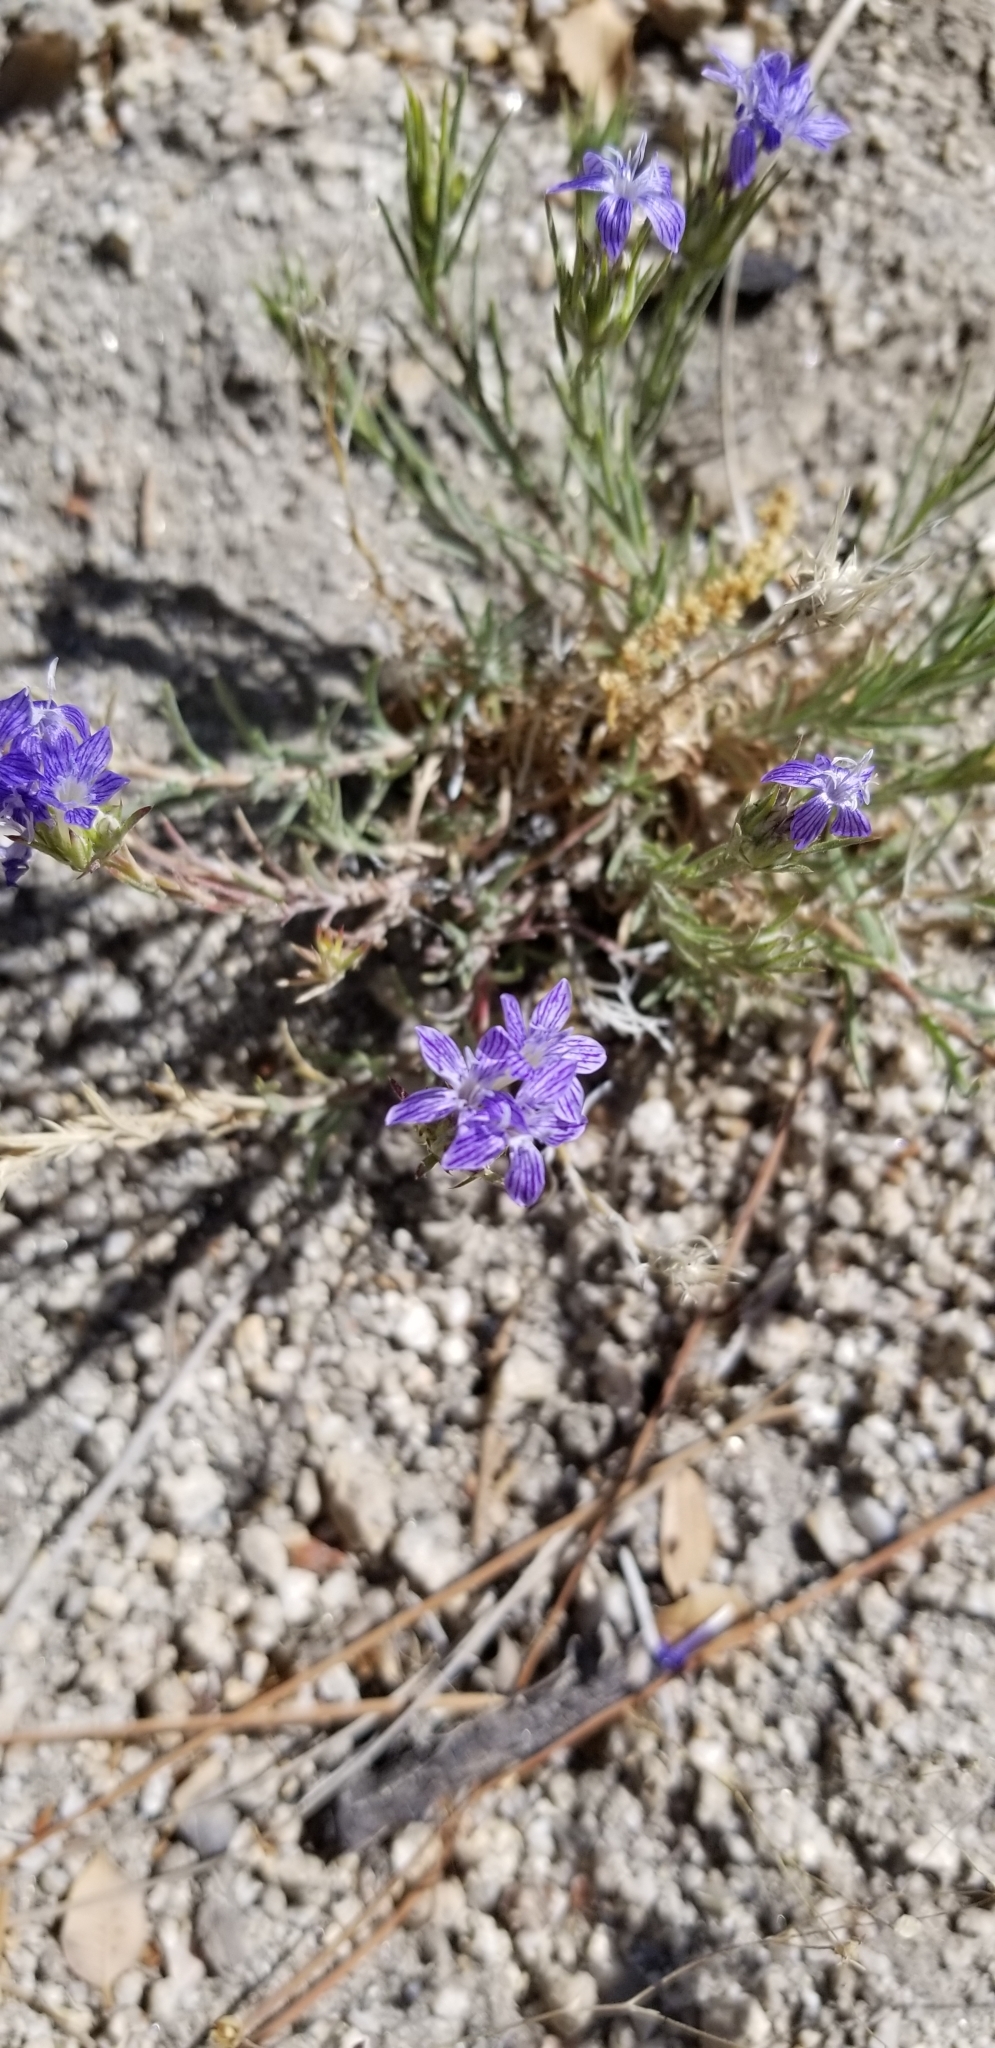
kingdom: Plantae
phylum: Tracheophyta
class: Magnoliopsida
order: Ericales
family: Polemoniaceae
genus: Eriastrum
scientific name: Eriastrum densifolium
